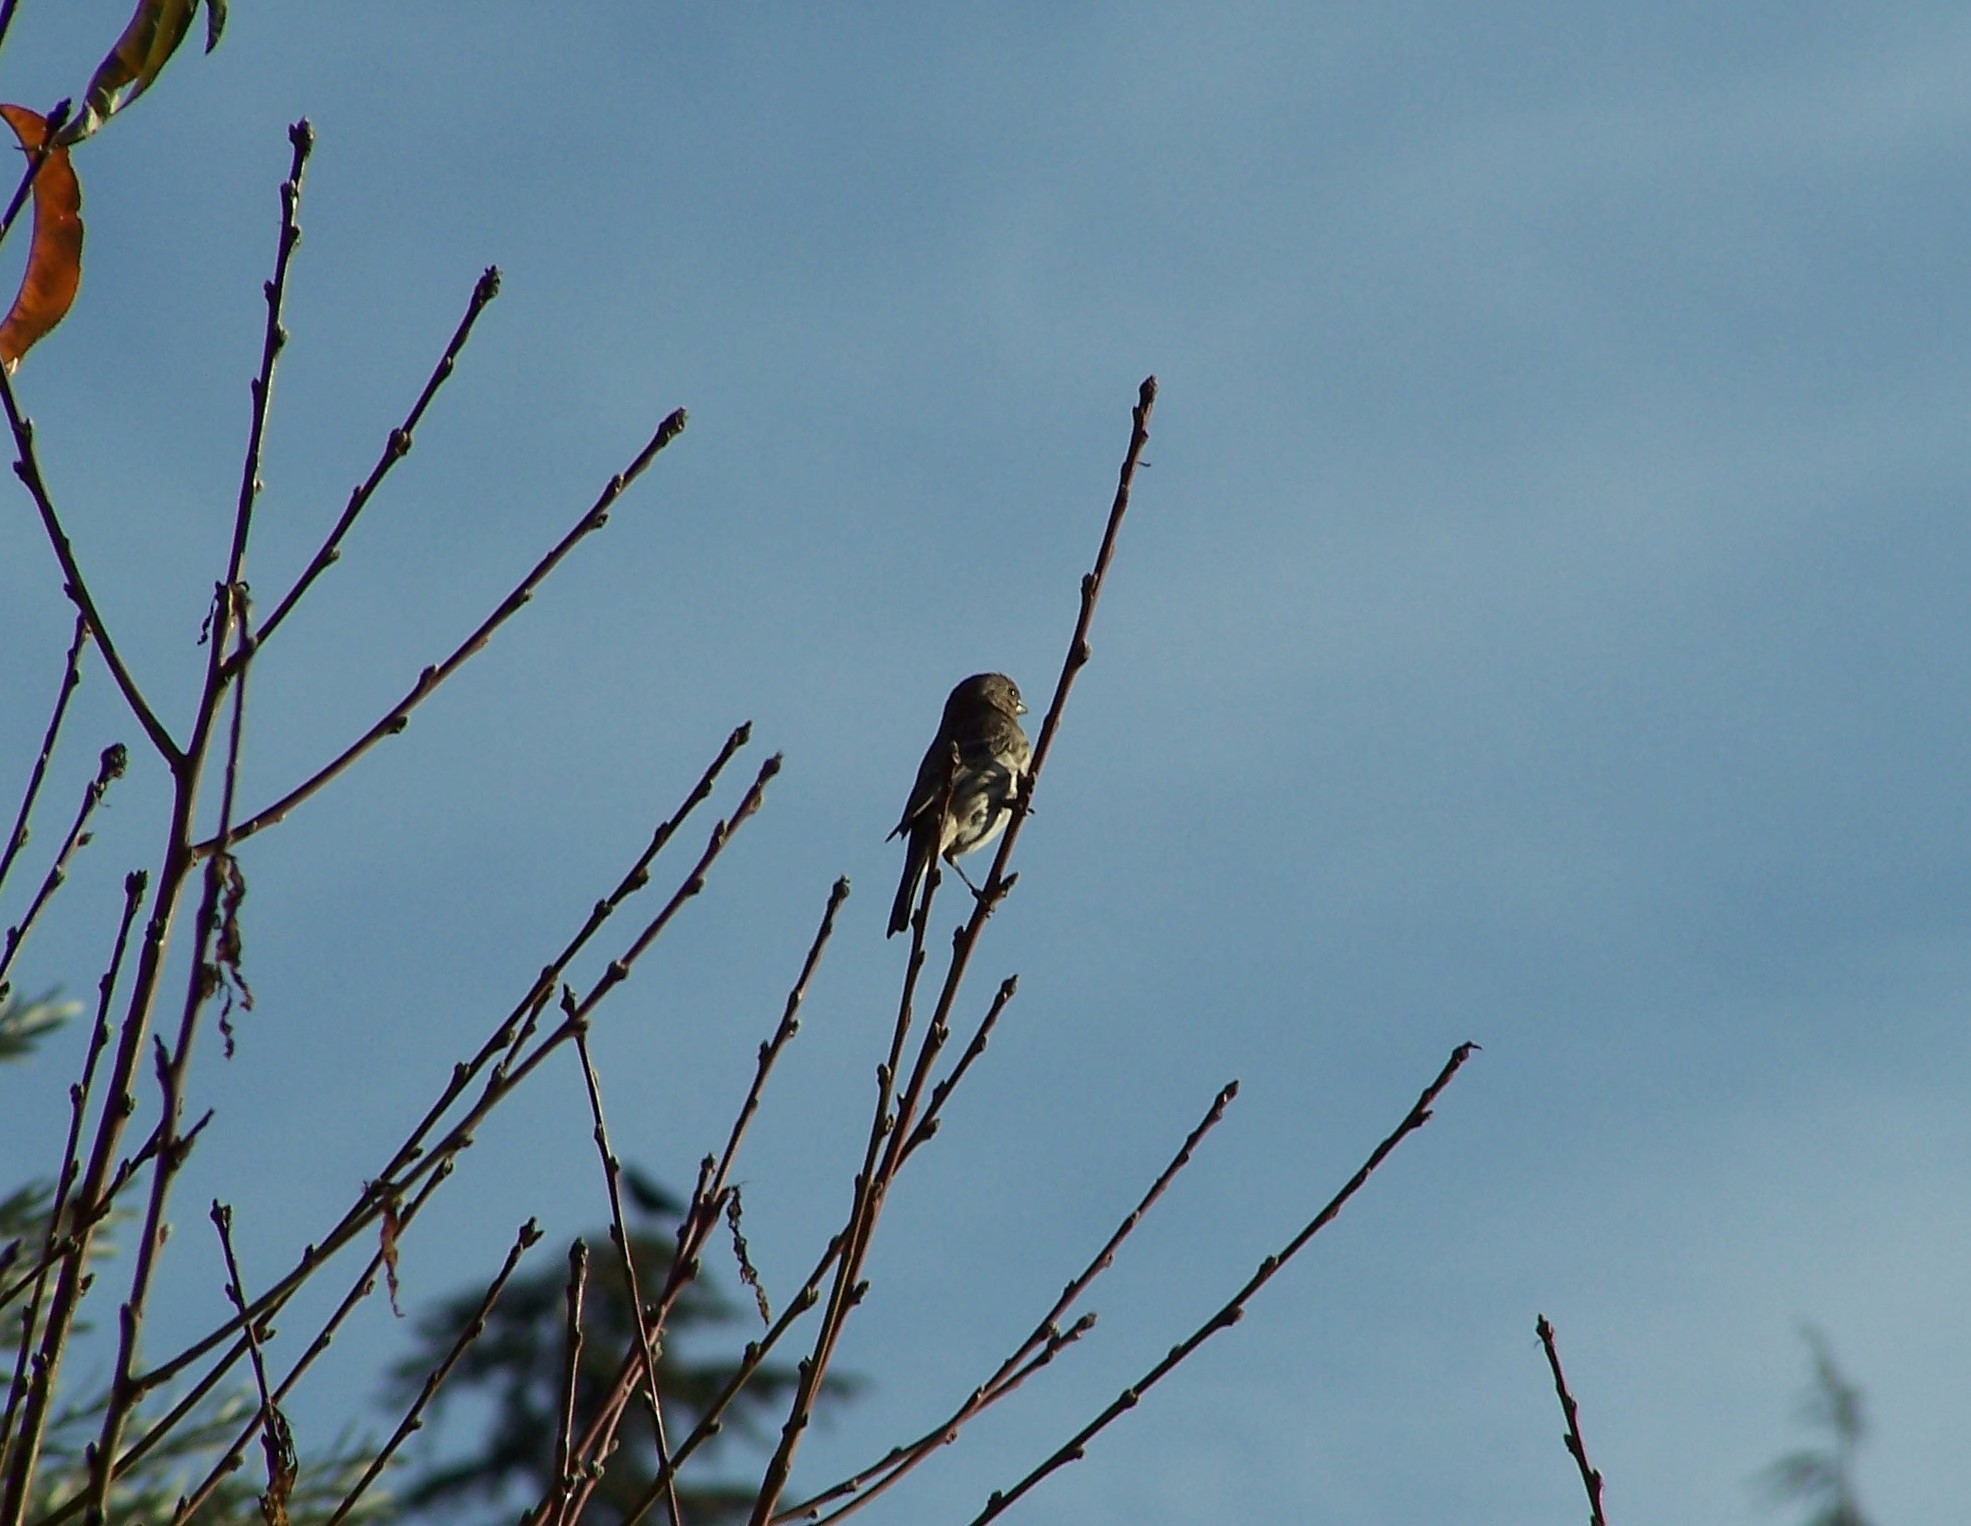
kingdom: Animalia
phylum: Chordata
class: Aves
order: Passeriformes
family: Fringillidae
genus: Haemorhous
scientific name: Haemorhous mexicanus
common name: House finch
